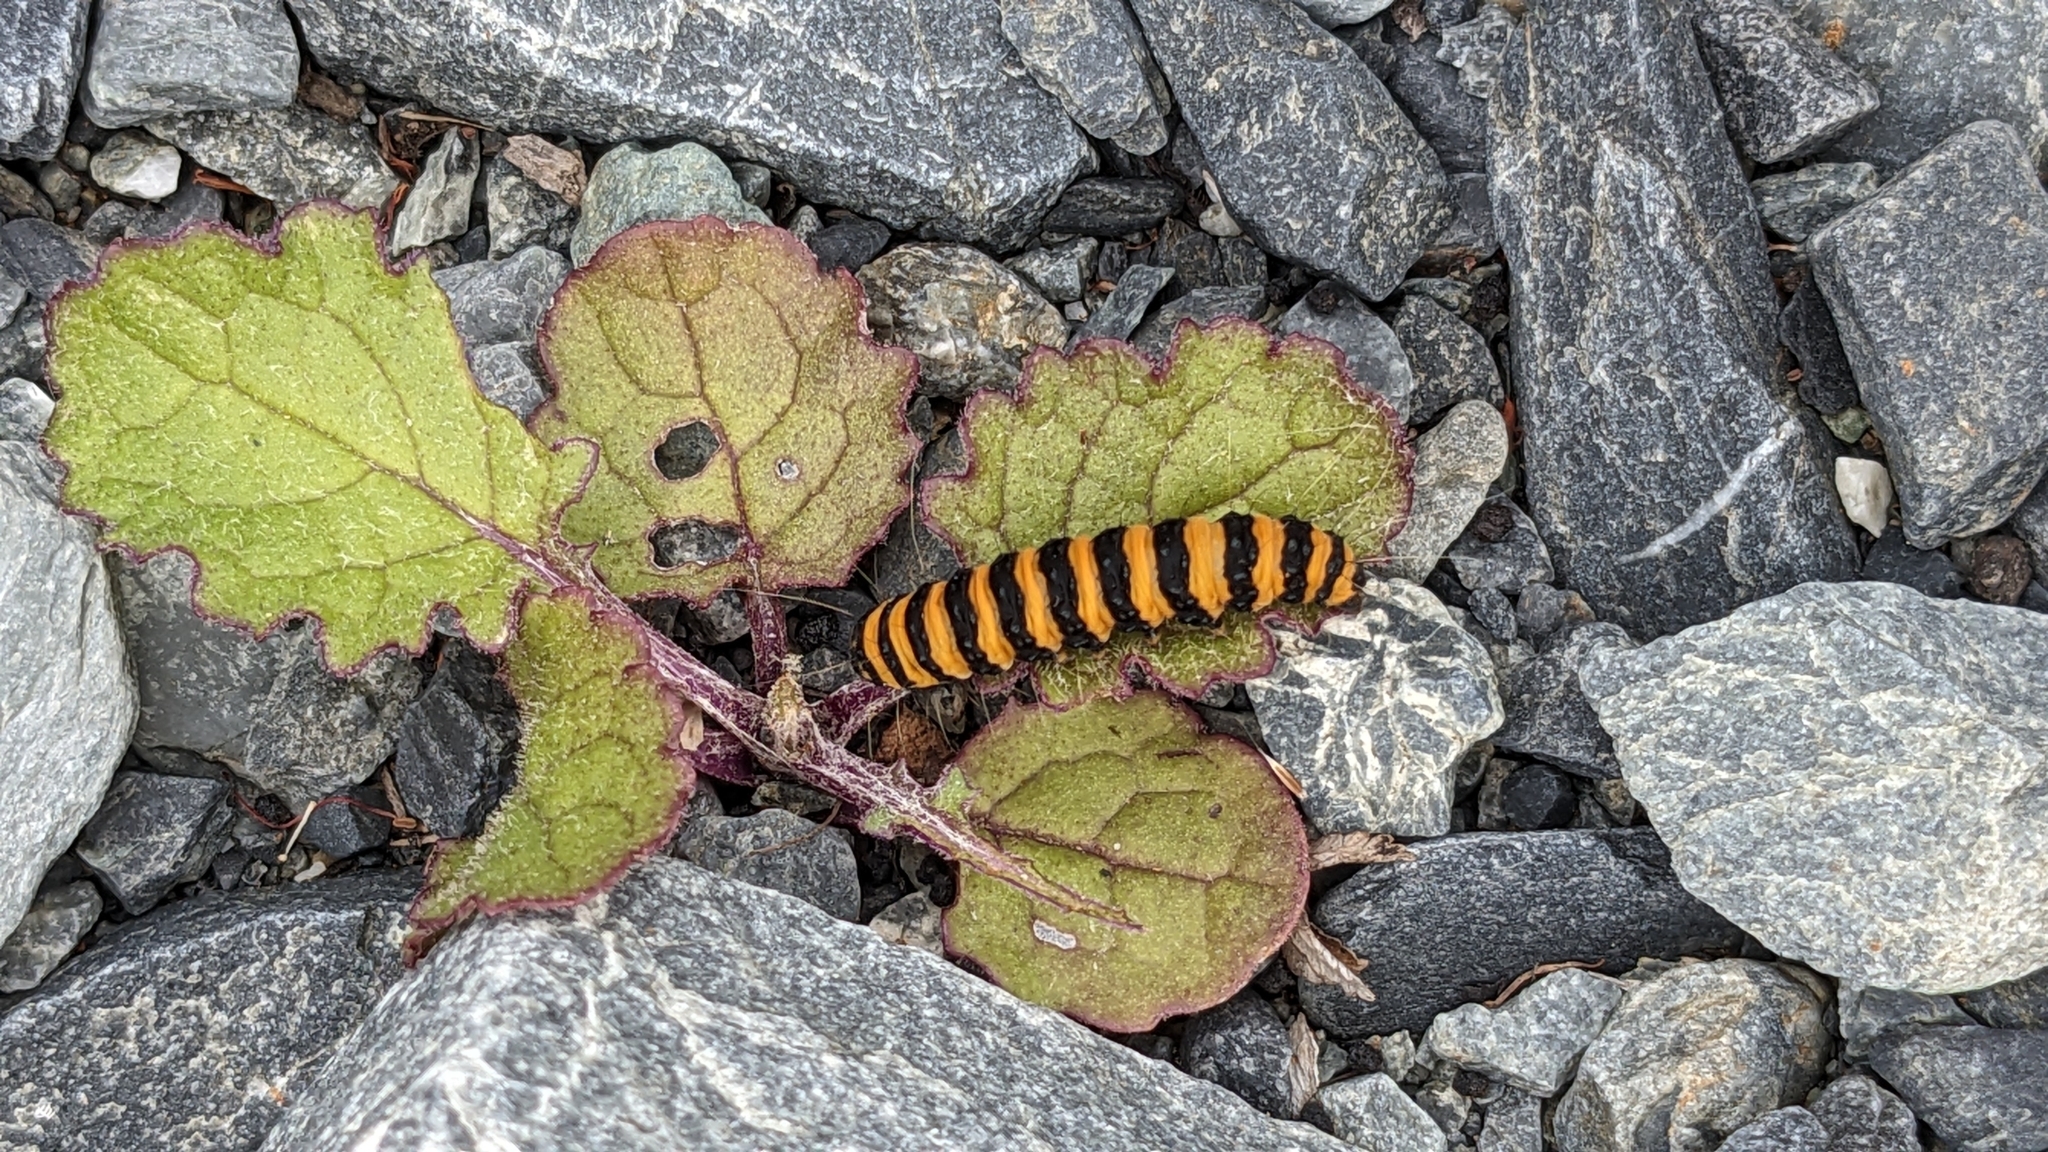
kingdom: Animalia
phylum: Arthropoda
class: Insecta
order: Lepidoptera
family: Erebidae
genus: Tyria
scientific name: Tyria jacobaeae
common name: Cinnabar
